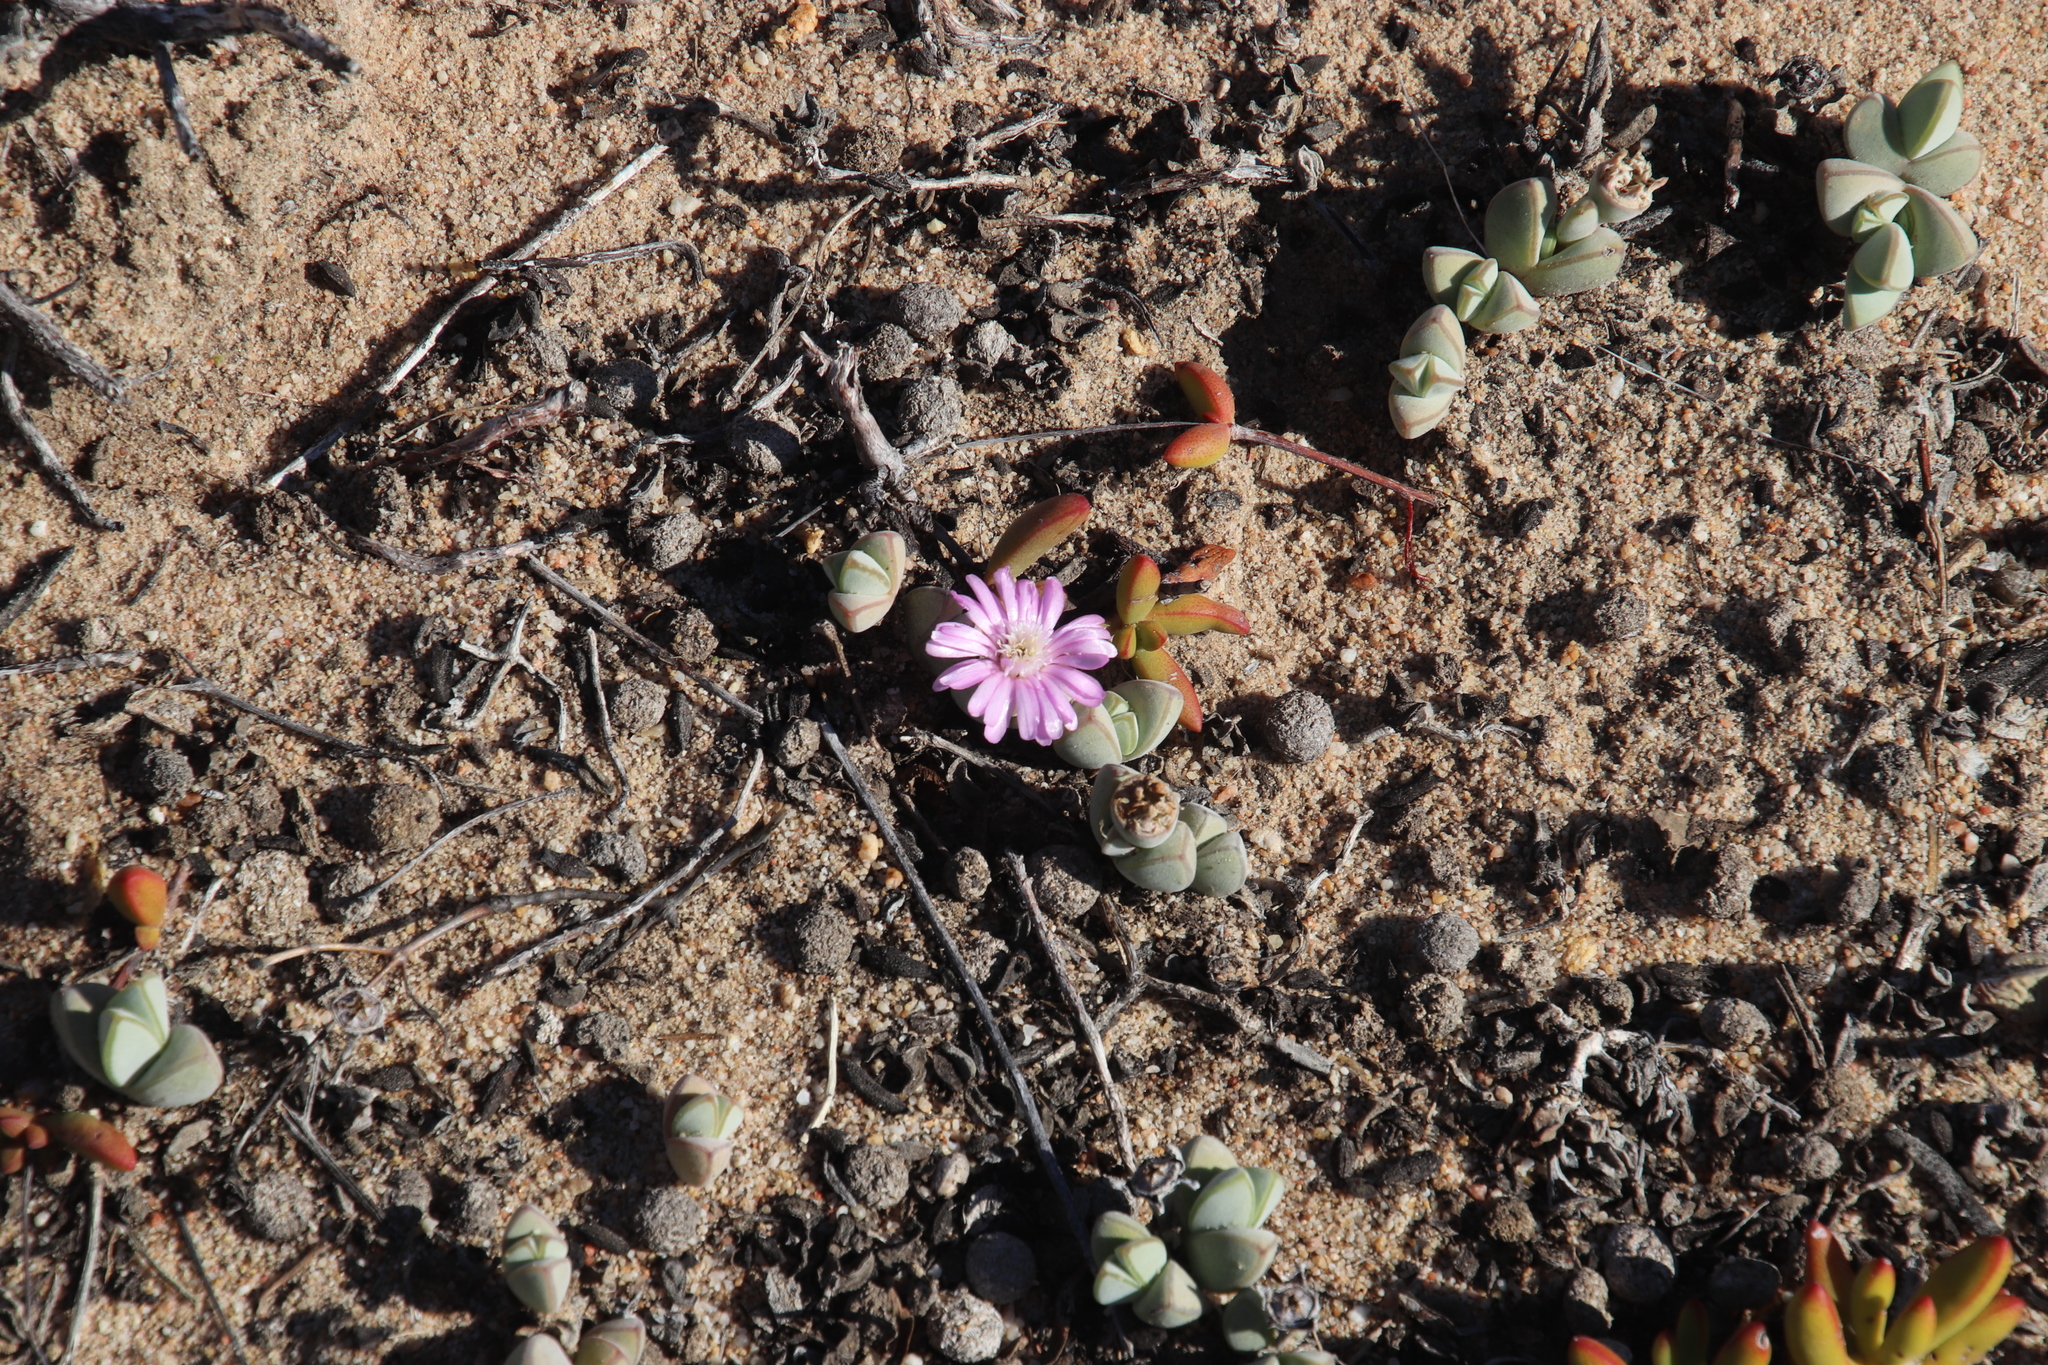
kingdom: Animalia
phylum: Chordata
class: Mammalia
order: Lagomorpha
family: Leporidae
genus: Pronolagus
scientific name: Pronolagus saundersiae
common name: Hewitt's red rock hare
